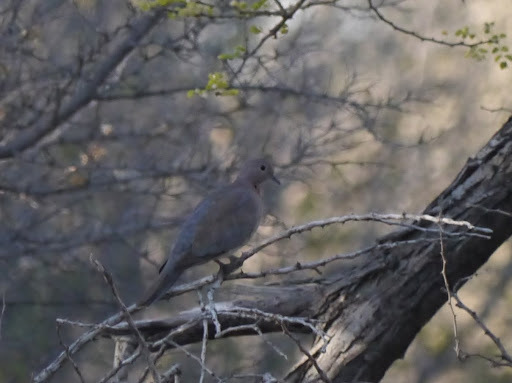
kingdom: Animalia
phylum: Chordata
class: Aves
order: Columbiformes
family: Columbidae
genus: Spilopelia
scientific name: Spilopelia senegalensis
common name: Laughing dove
